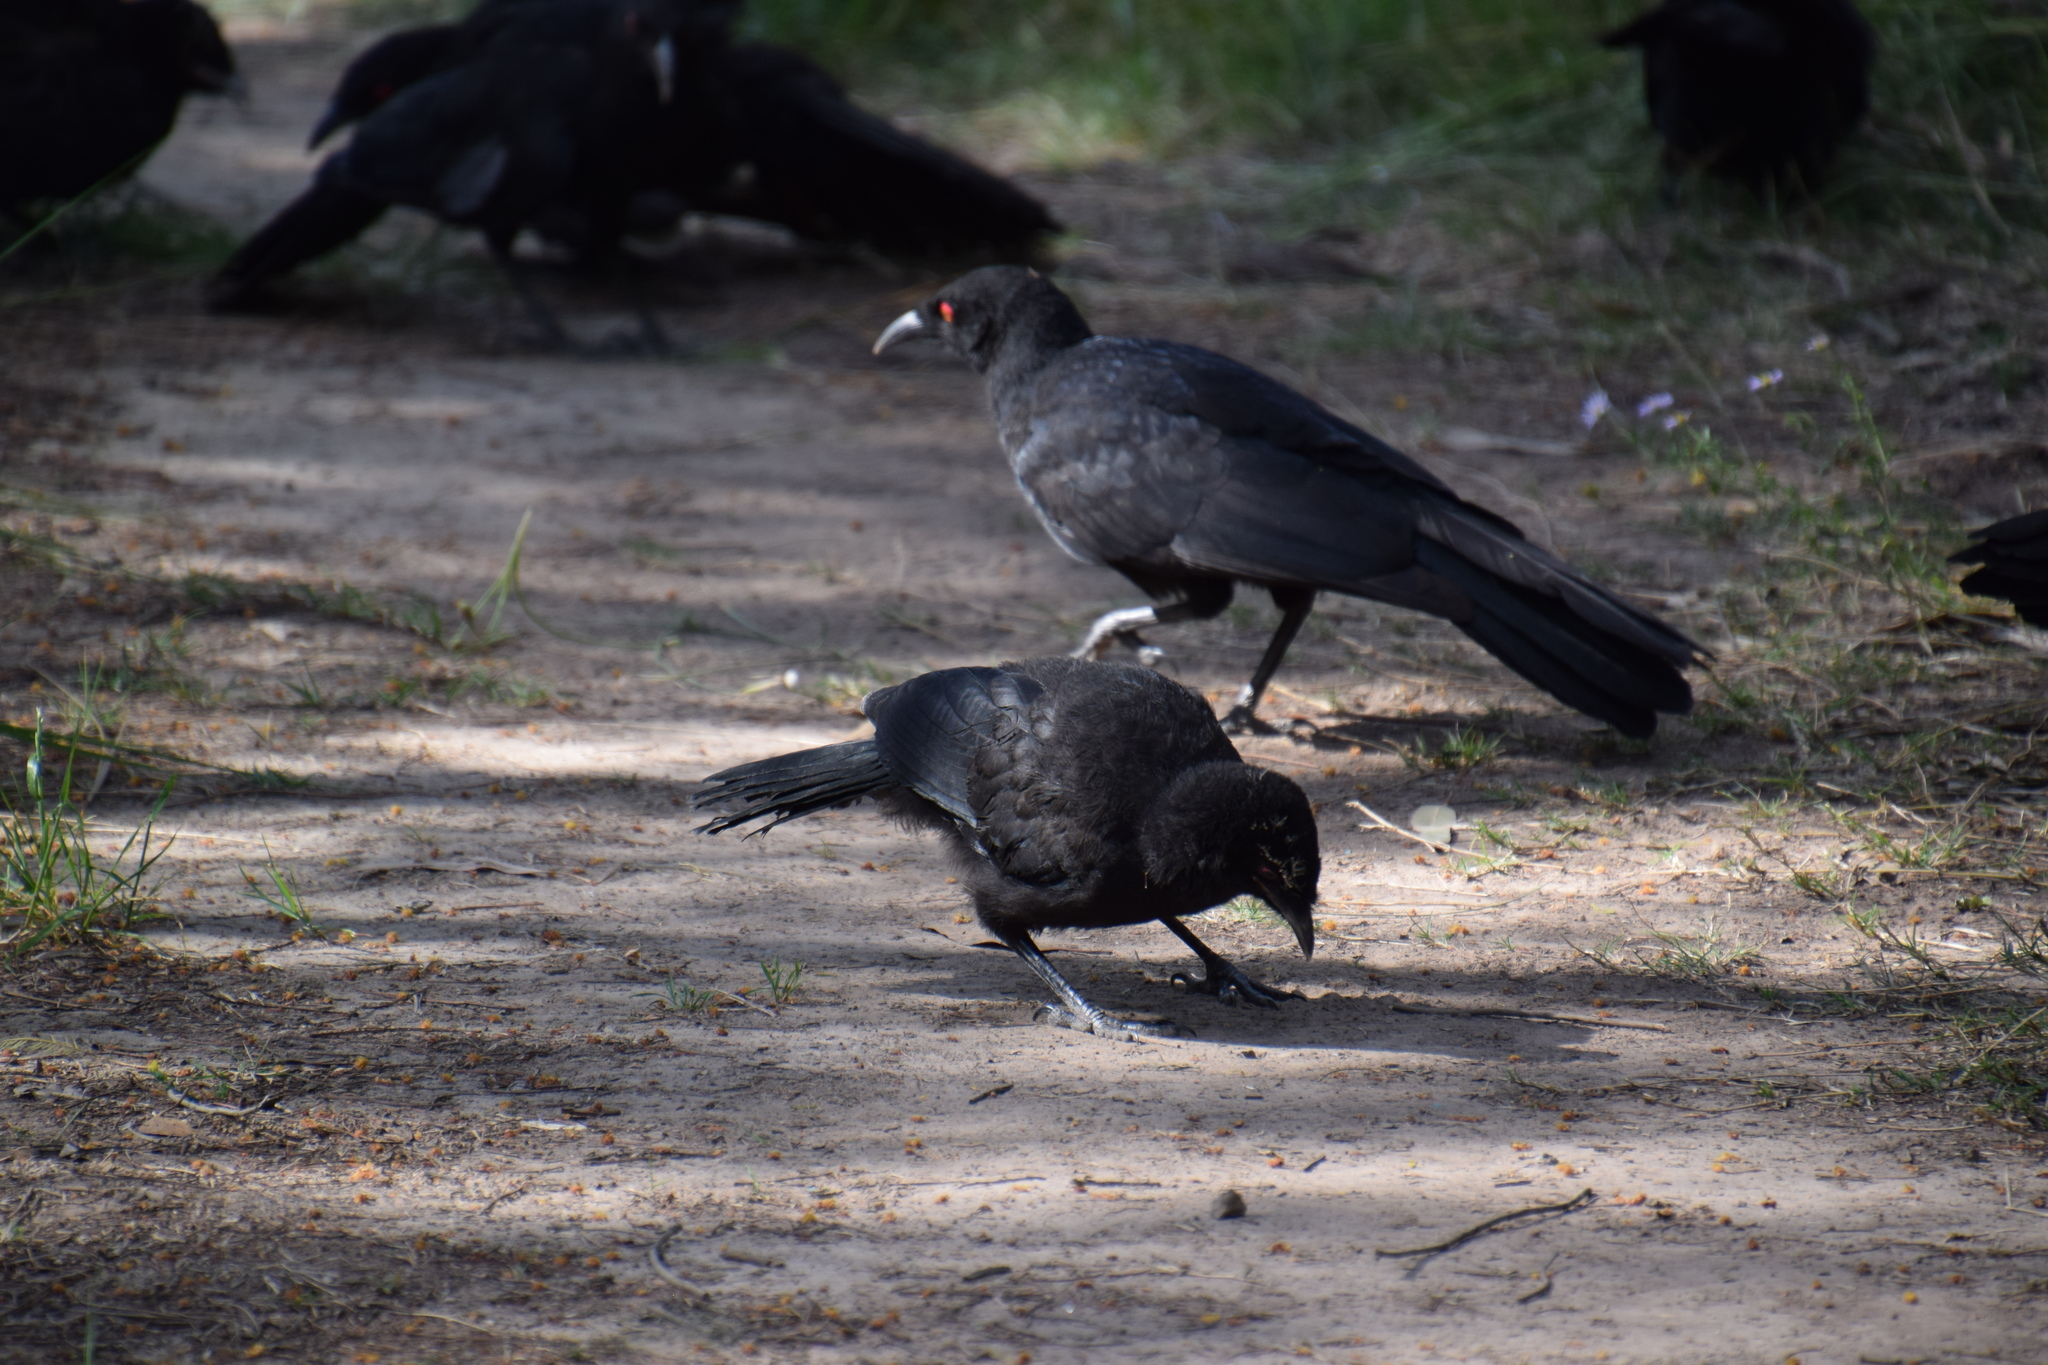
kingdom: Animalia
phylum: Chordata
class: Aves
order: Passeriformes
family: Corcoracidae
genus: Corcorax
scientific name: Corcorax melanoramphos
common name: White-winged chough
